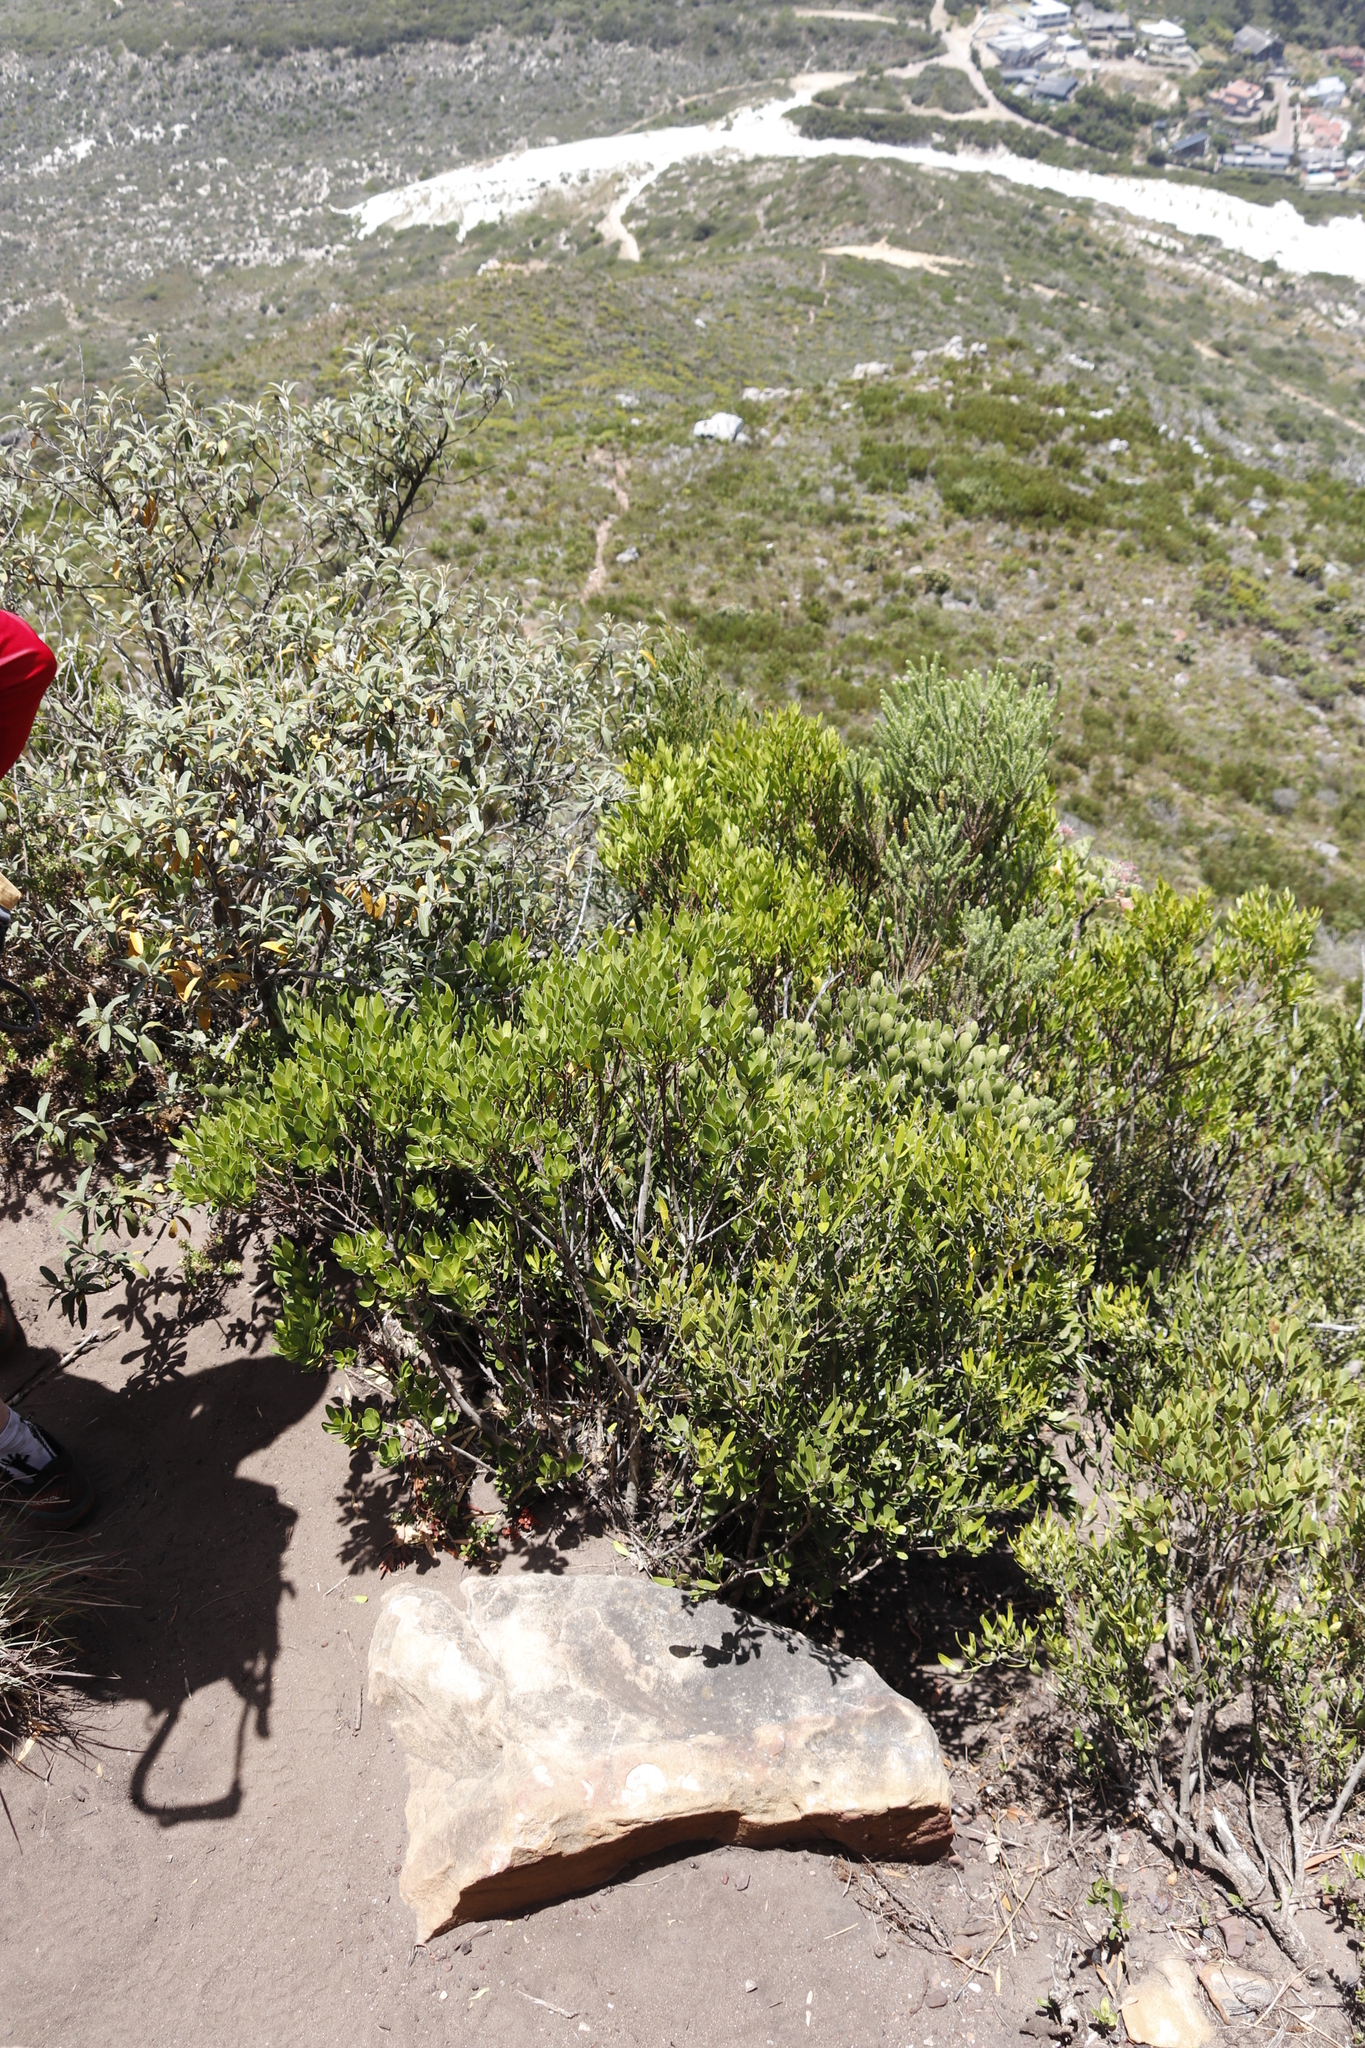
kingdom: Plantae
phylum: Tracheophyta
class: Magnoliopsida
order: Asterales
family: Asteraceae
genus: Tarchonanthus
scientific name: Tarchonanthus littoralis
